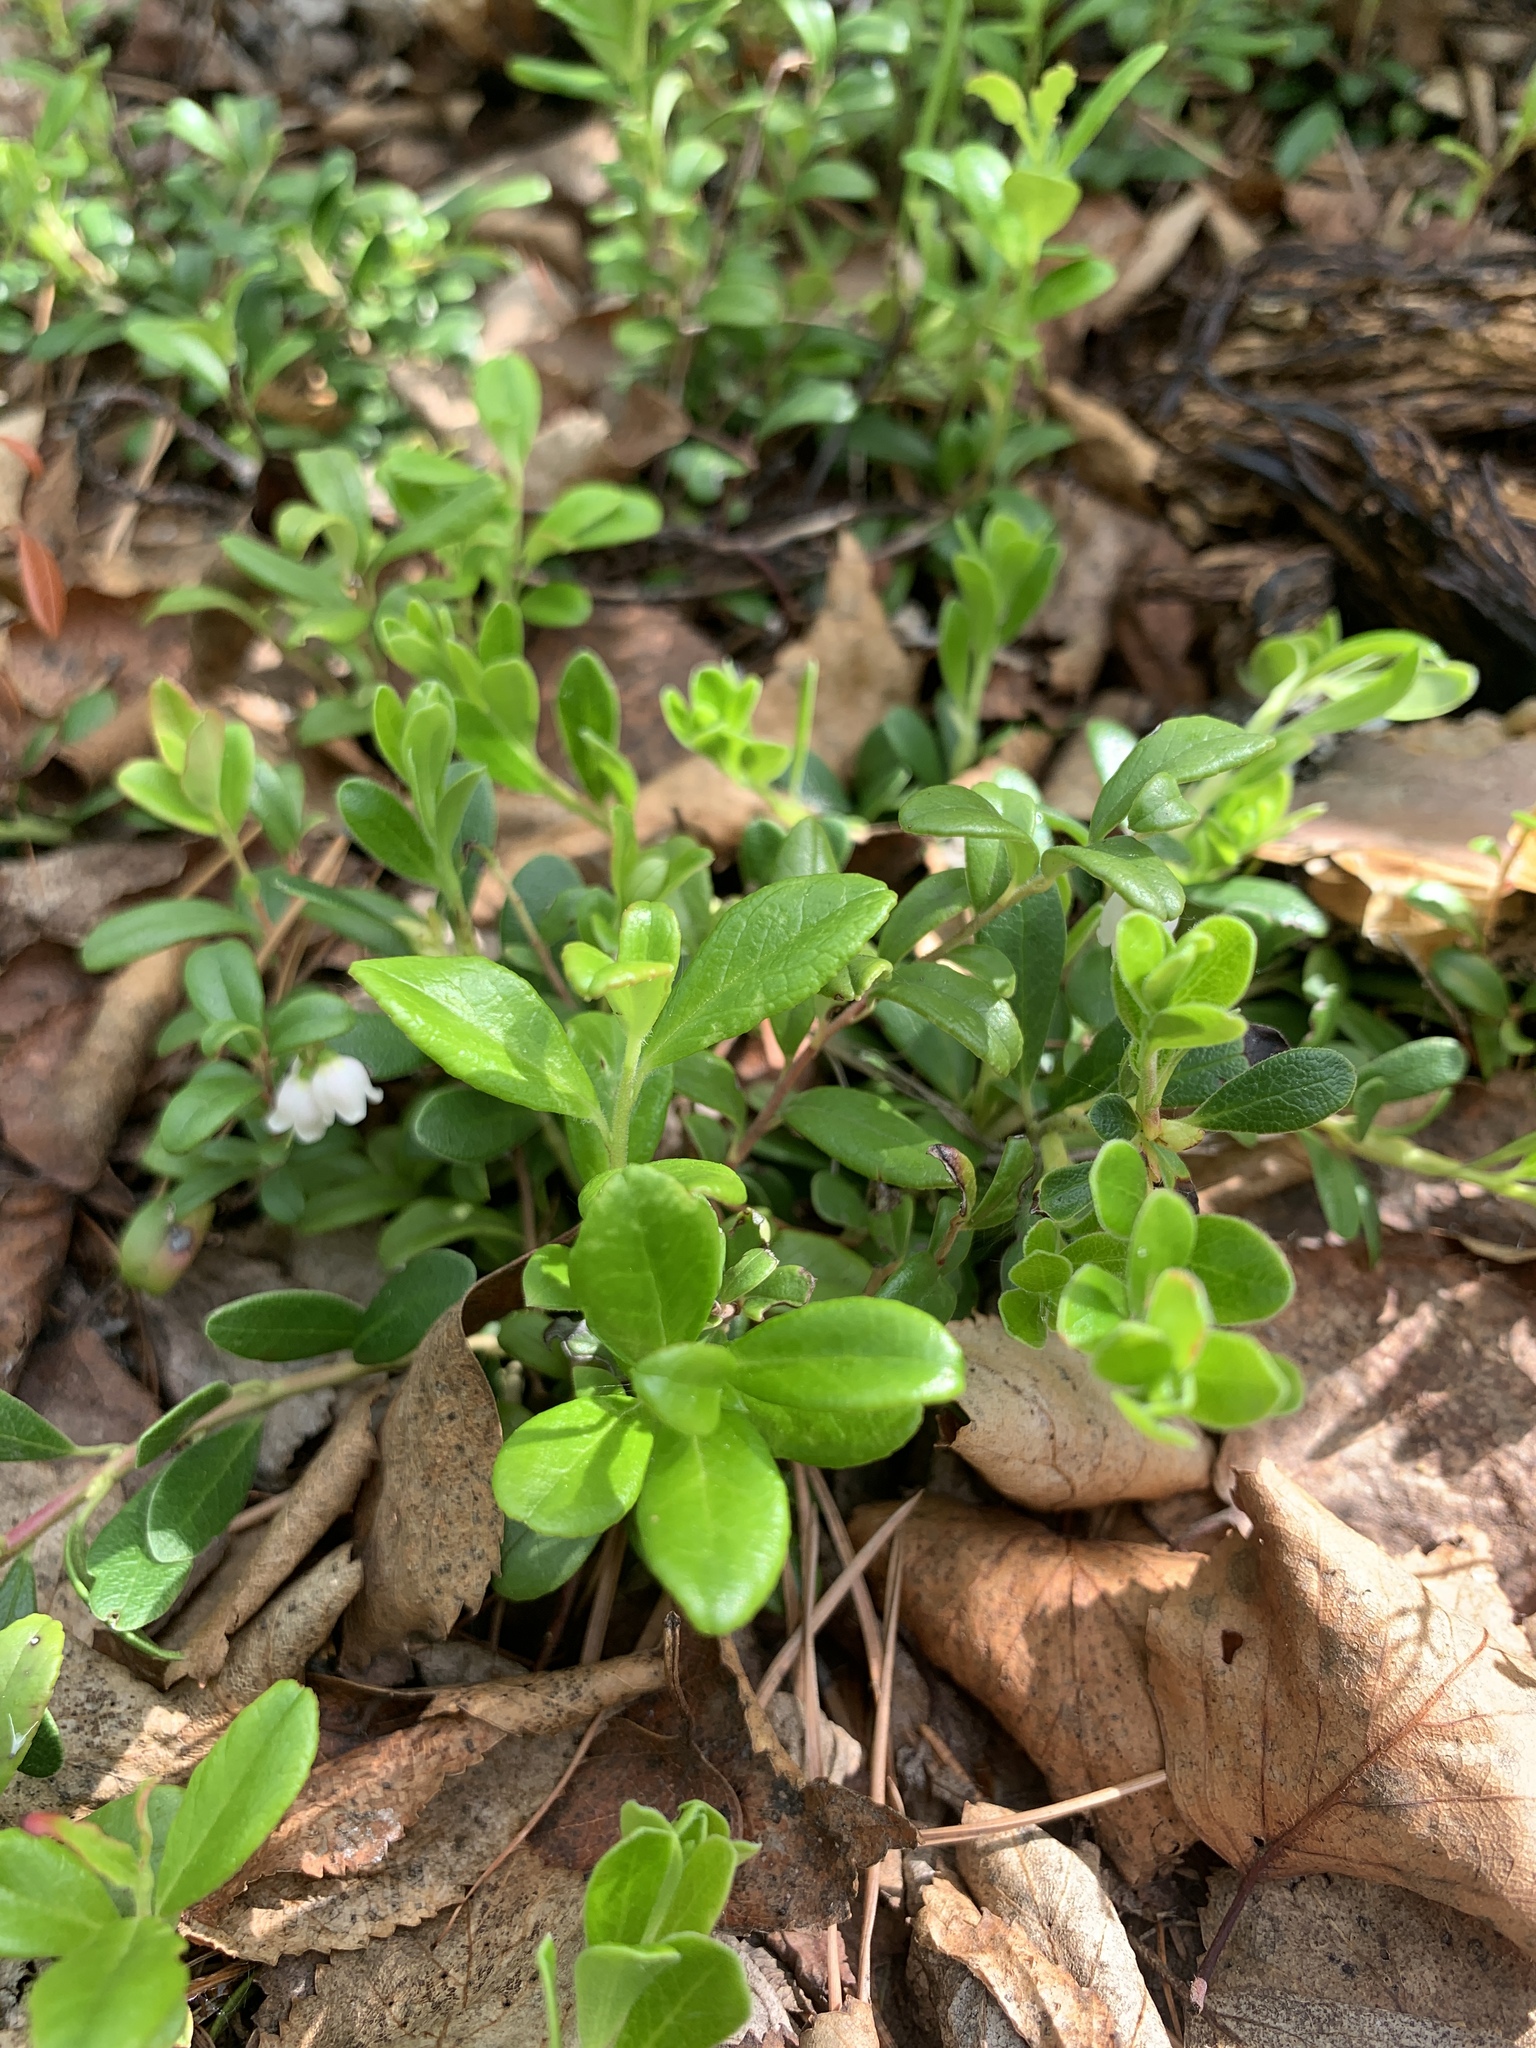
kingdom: Plantae
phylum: Tracheophyta
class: Magnoliopsida
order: Ericales
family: Ericaceae
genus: Arctostaphylos
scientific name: Arctostaphylos uva-ursi
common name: Bearberry
